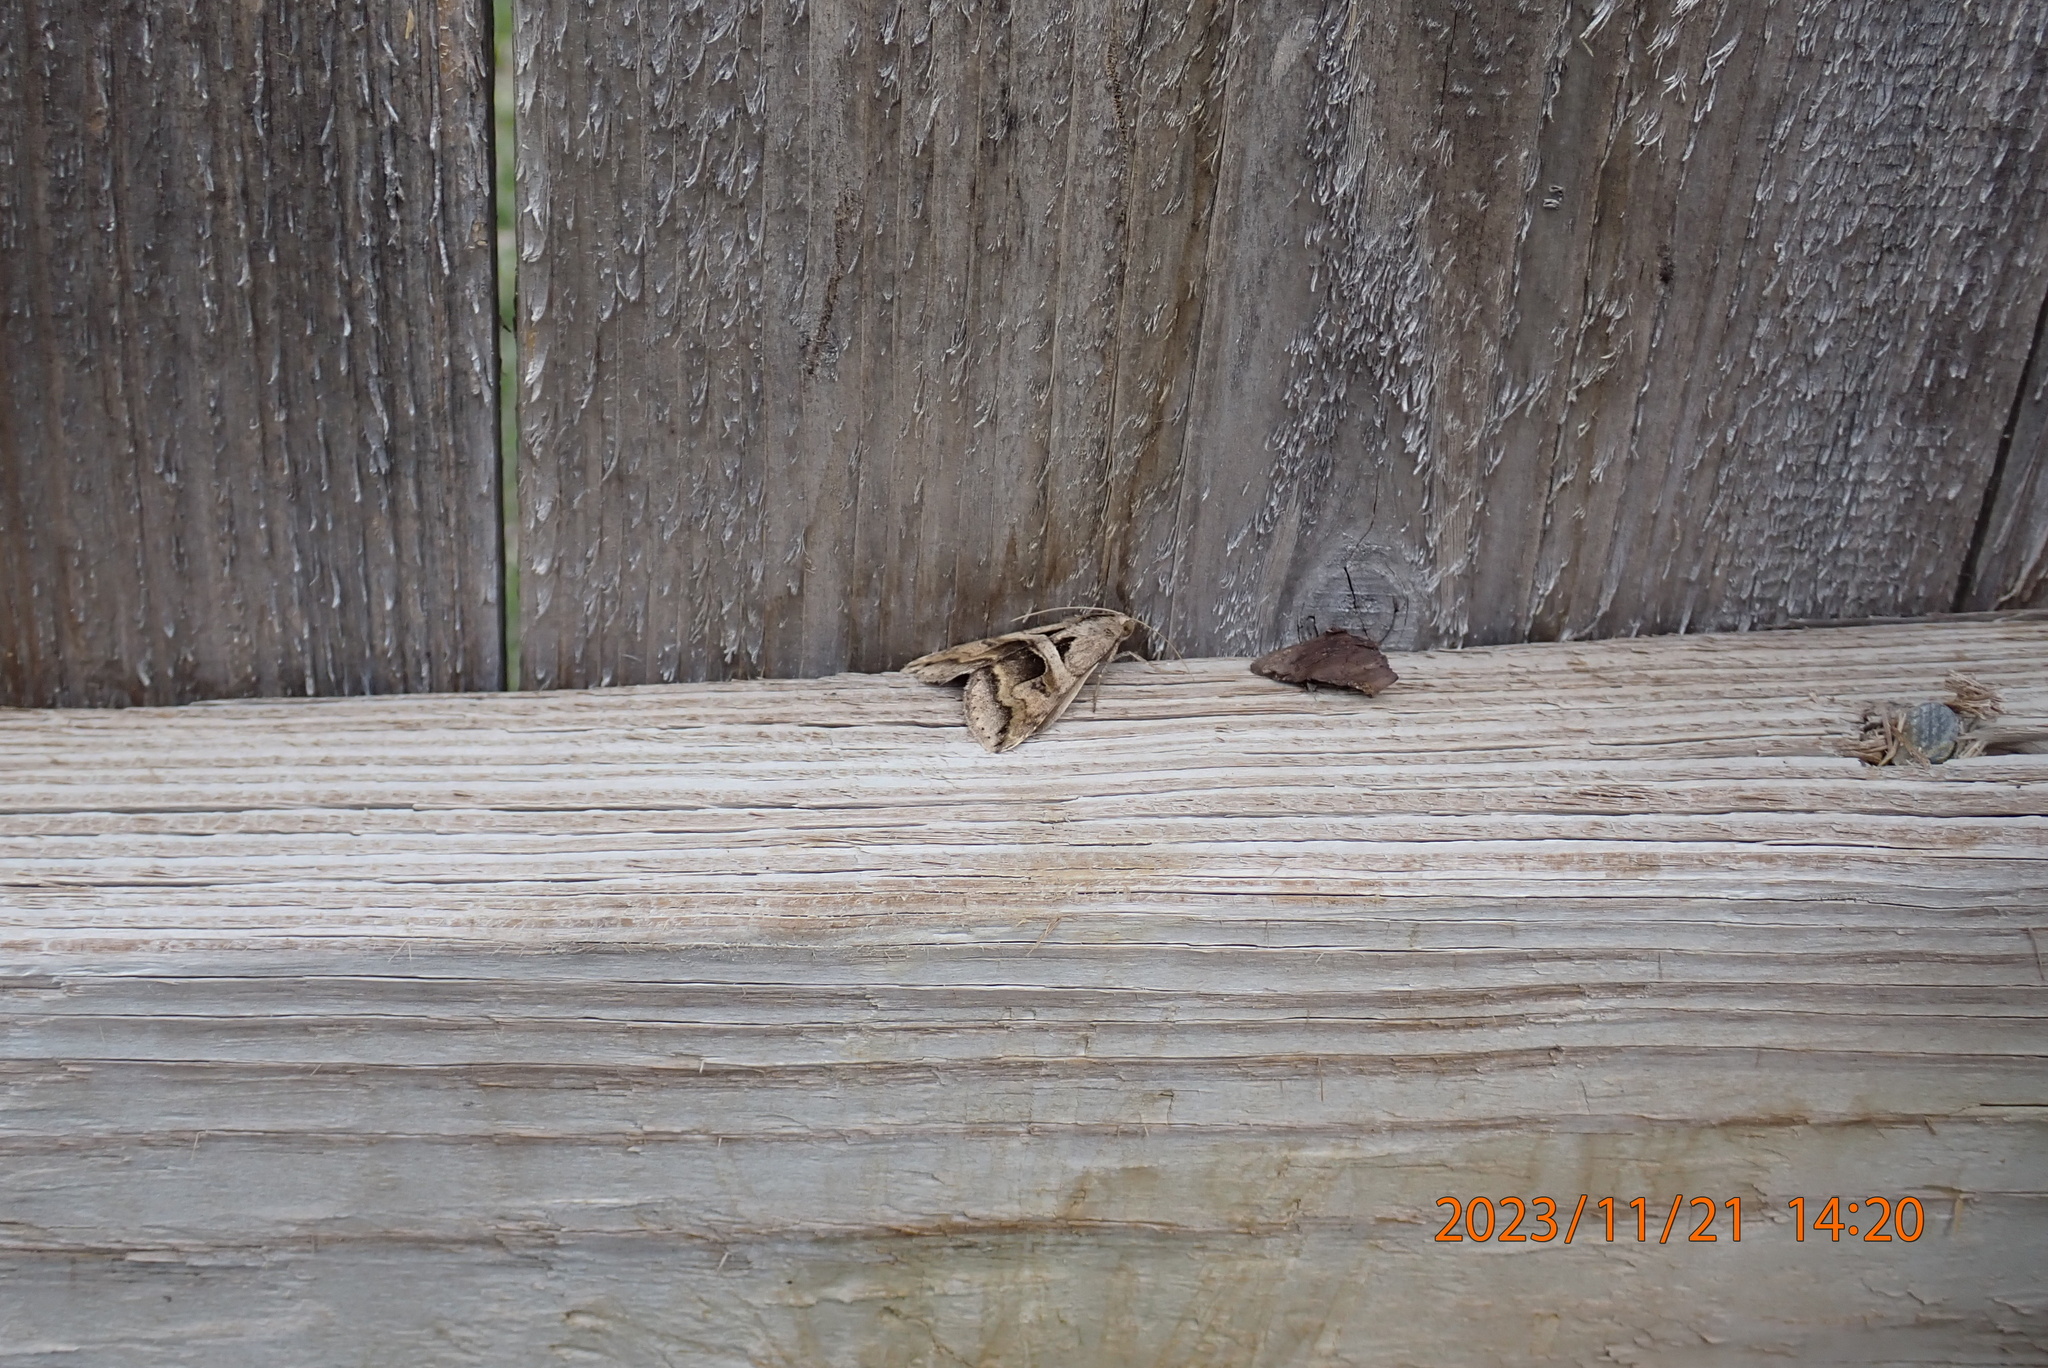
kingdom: Animalia
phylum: Arthropoda
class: Insecta
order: Lepidoptera
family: Erebidae
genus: Melipotis
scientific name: Melipotis cellaris
